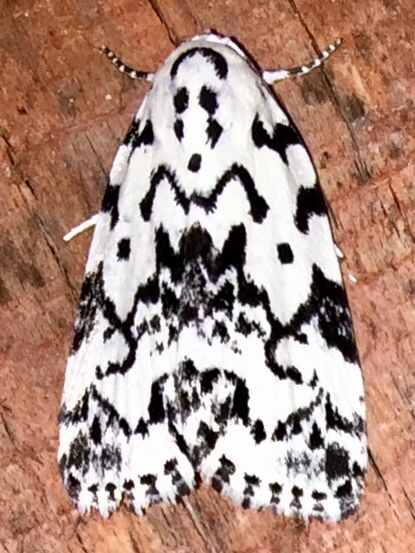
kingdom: Animalia
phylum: Arthropoda
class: Insecta
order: Lepidoptera
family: Noctuidae
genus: Polygrammate
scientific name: Polygrammate hebraeicum
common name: Hebrew moth
